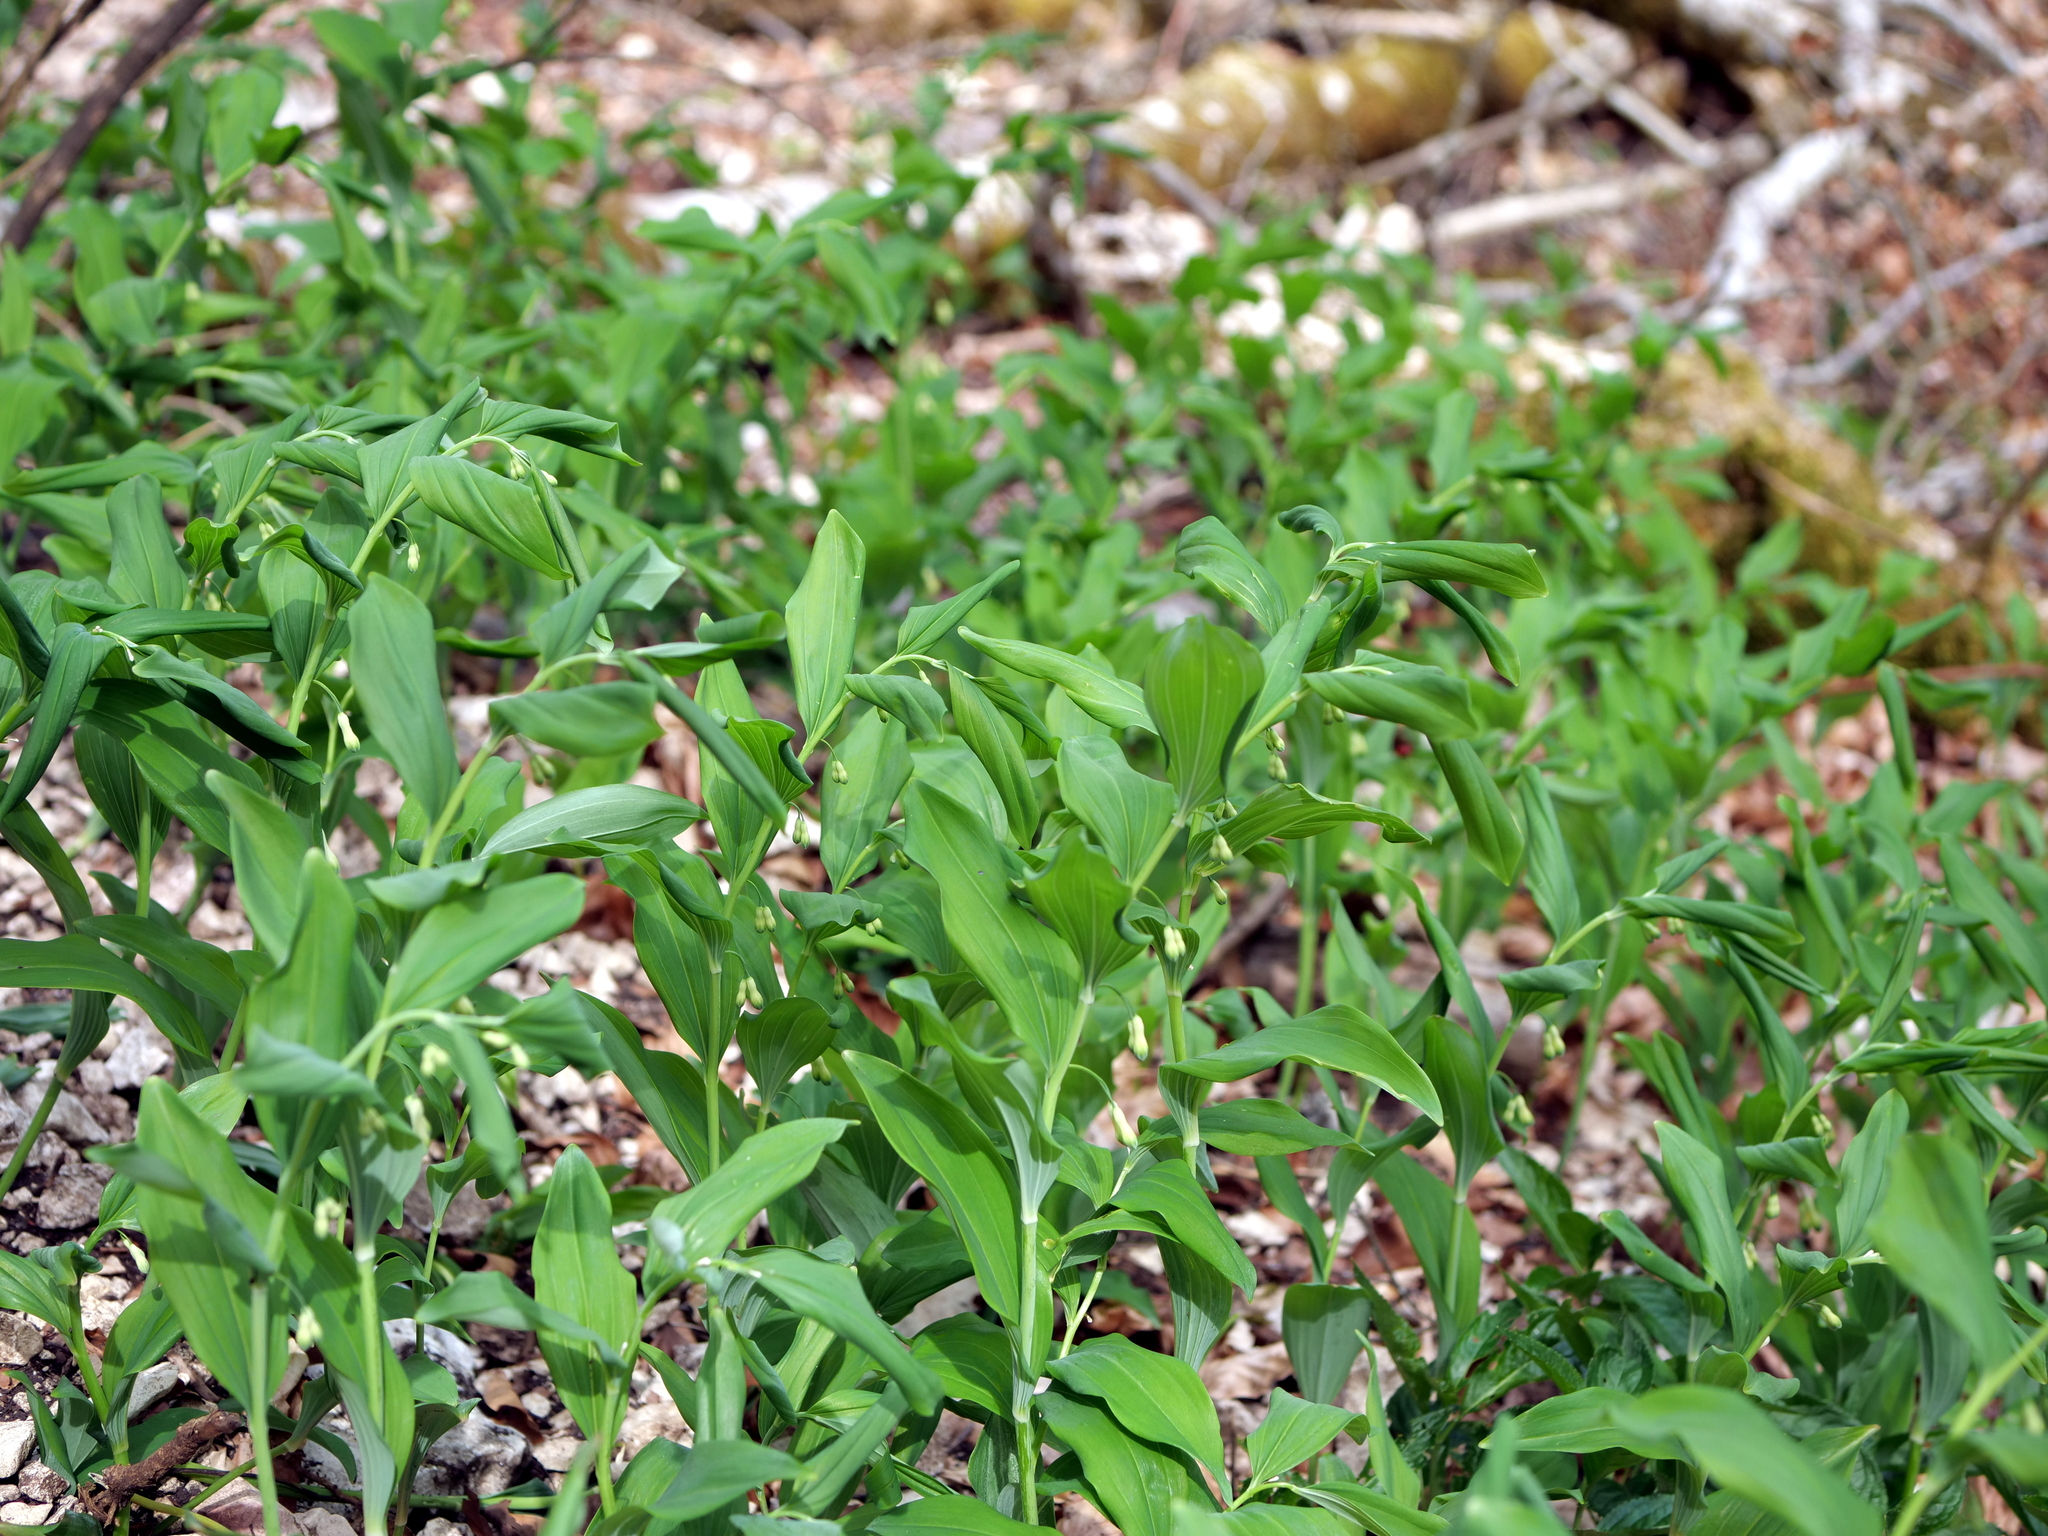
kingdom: Plantae
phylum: Tracheophyta
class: Liliopsida
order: Asparagales
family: Asparagaceae
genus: Polygonatum
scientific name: Polygonatum multiflorum
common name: Solomon's-seal
